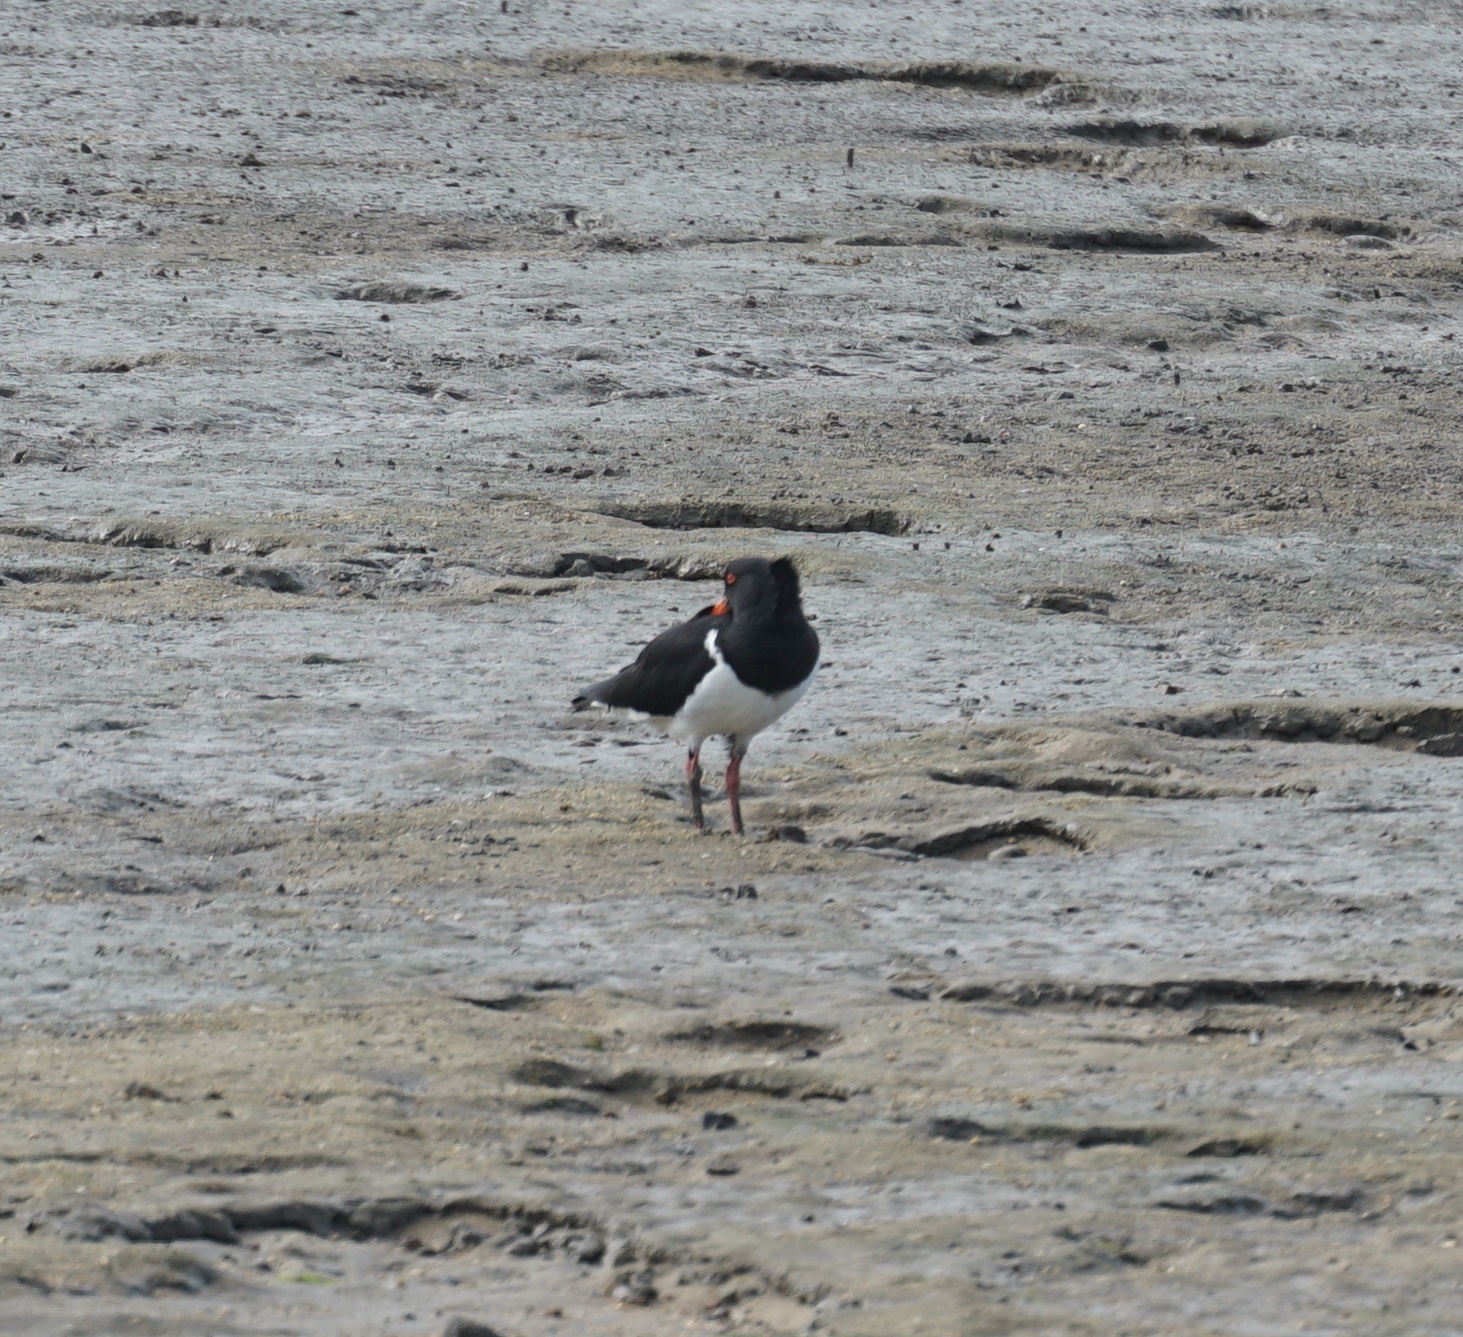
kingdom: Animalia
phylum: Chordata
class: Aves
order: Charadriiformes
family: Haematopodidae
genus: Haematopus
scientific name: Haematopus longirostris
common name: Pied oystercatcher
